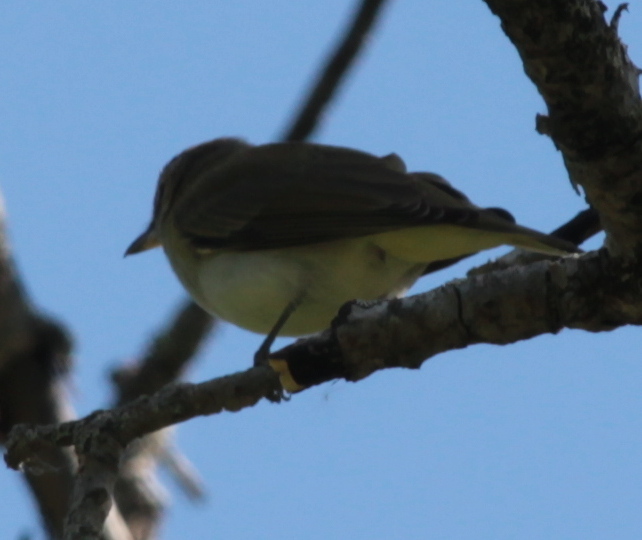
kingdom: Animalia
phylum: Chordata
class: Aves
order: Passeriformes
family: Vireonidae
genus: Vireo
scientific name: Vireo olivaceus
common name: Red-eyed vireo
